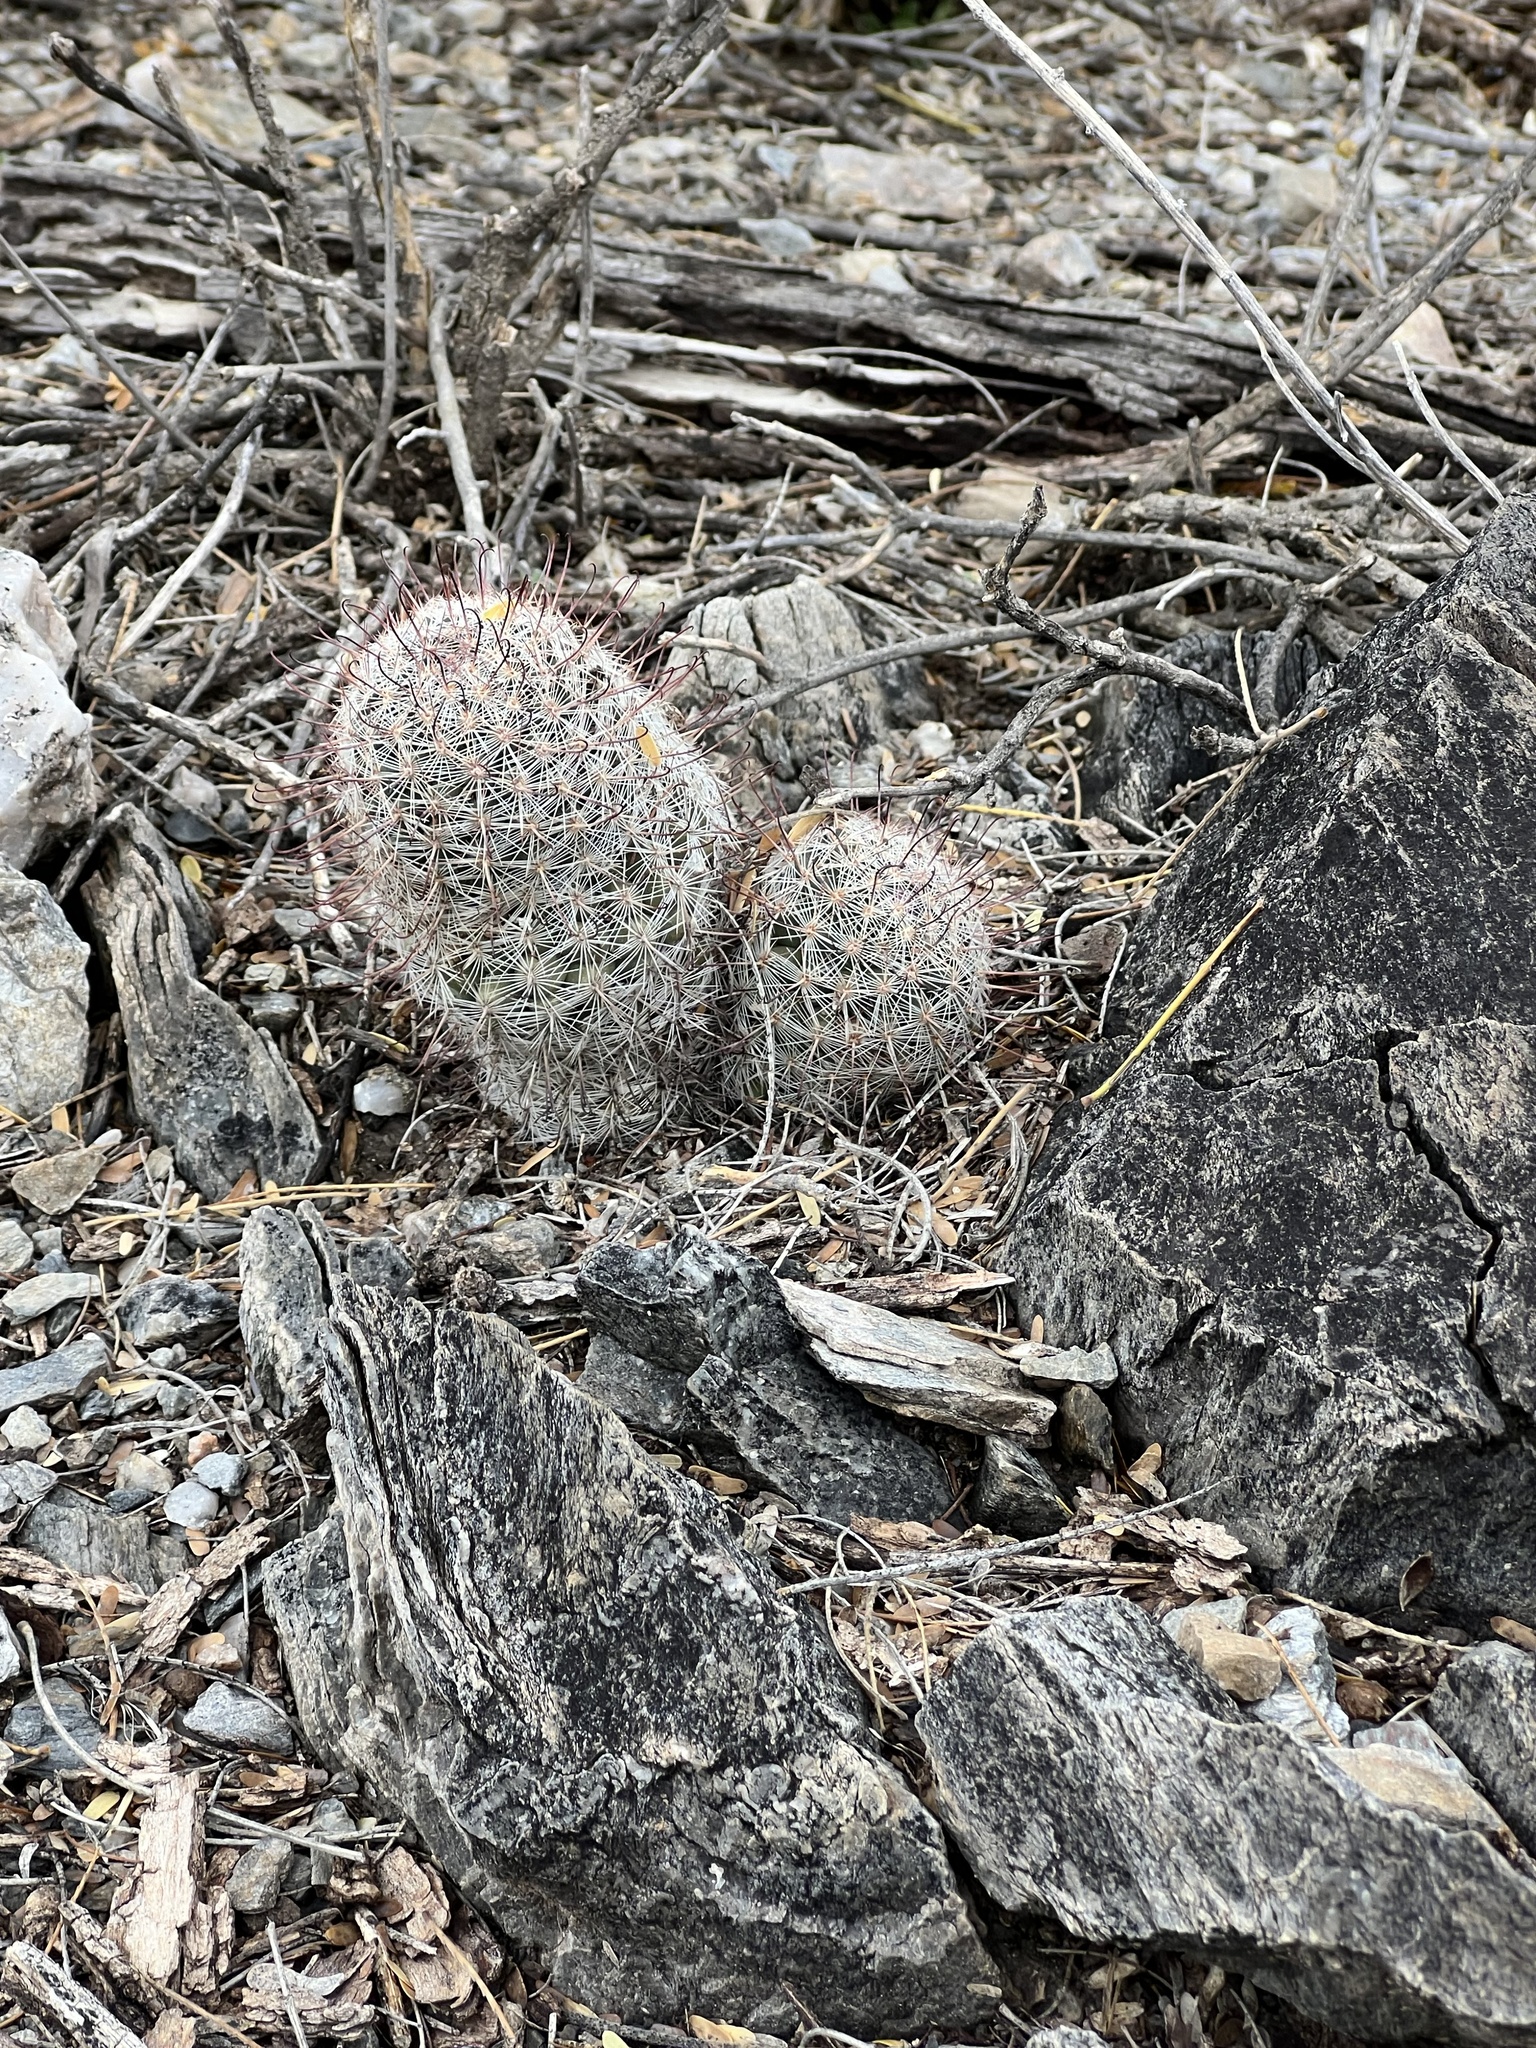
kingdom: Plantae
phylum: Tracheophyta
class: Magnoliopsida
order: Caryophyllales
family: Cactaceae
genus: Cochemiea
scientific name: Cochemiea grahamii
